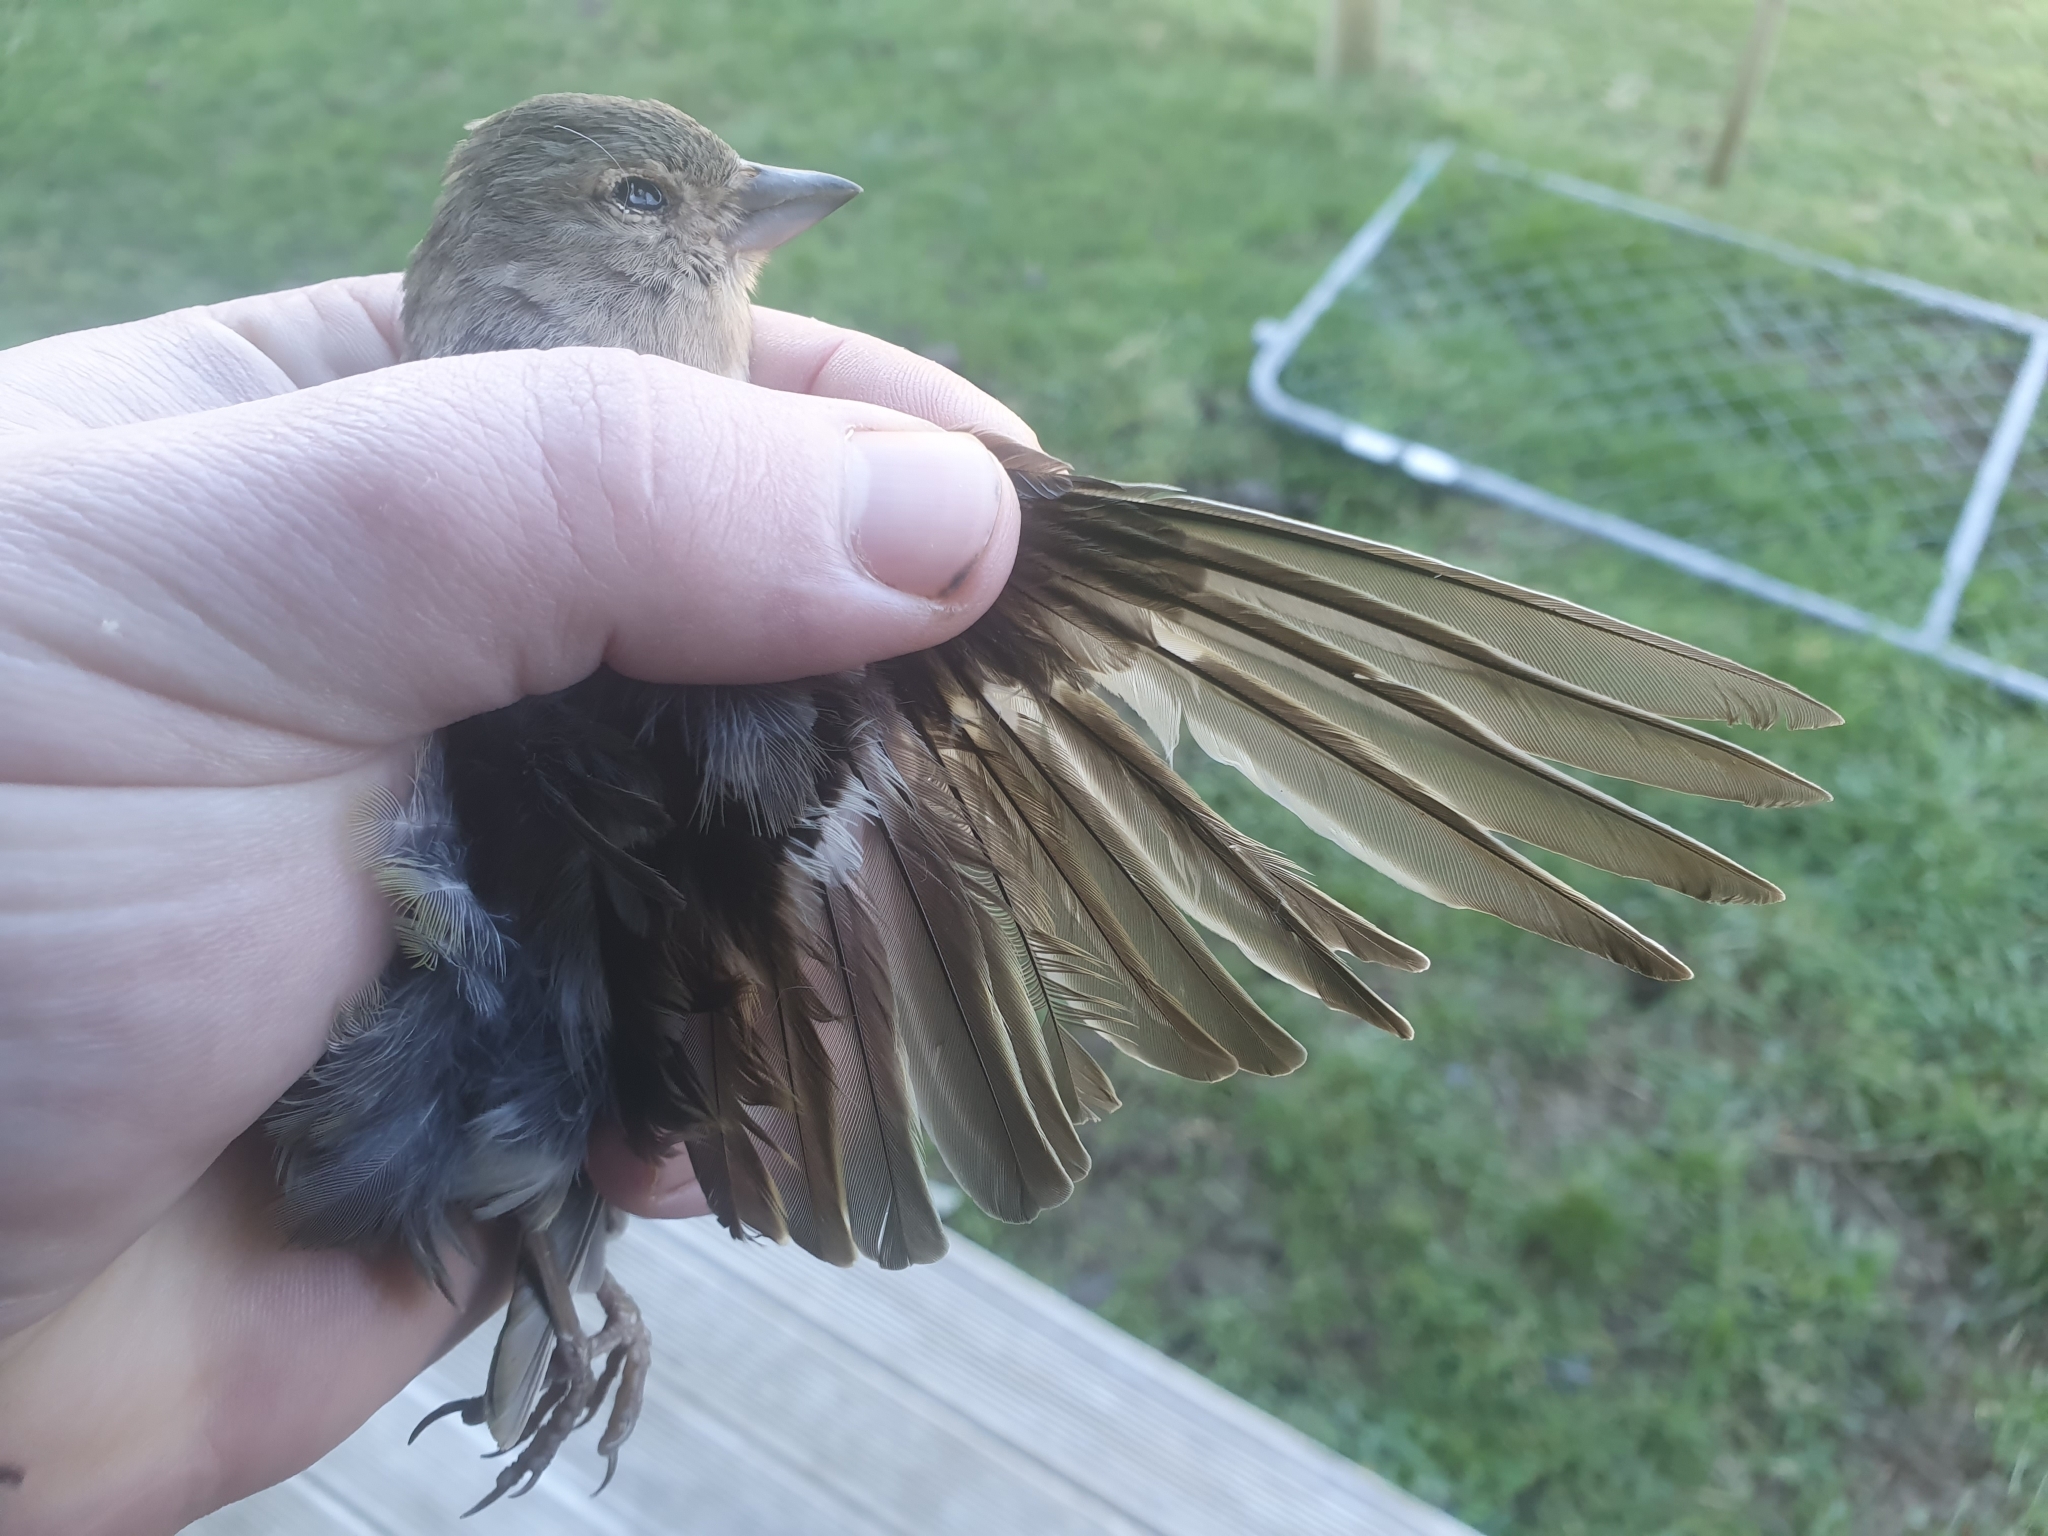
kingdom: Animalia
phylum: Chordata
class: Aves
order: Passeriformes
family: Fringillidae
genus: Fringilla
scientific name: Fringilla coelebs
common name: Common chaffinch
